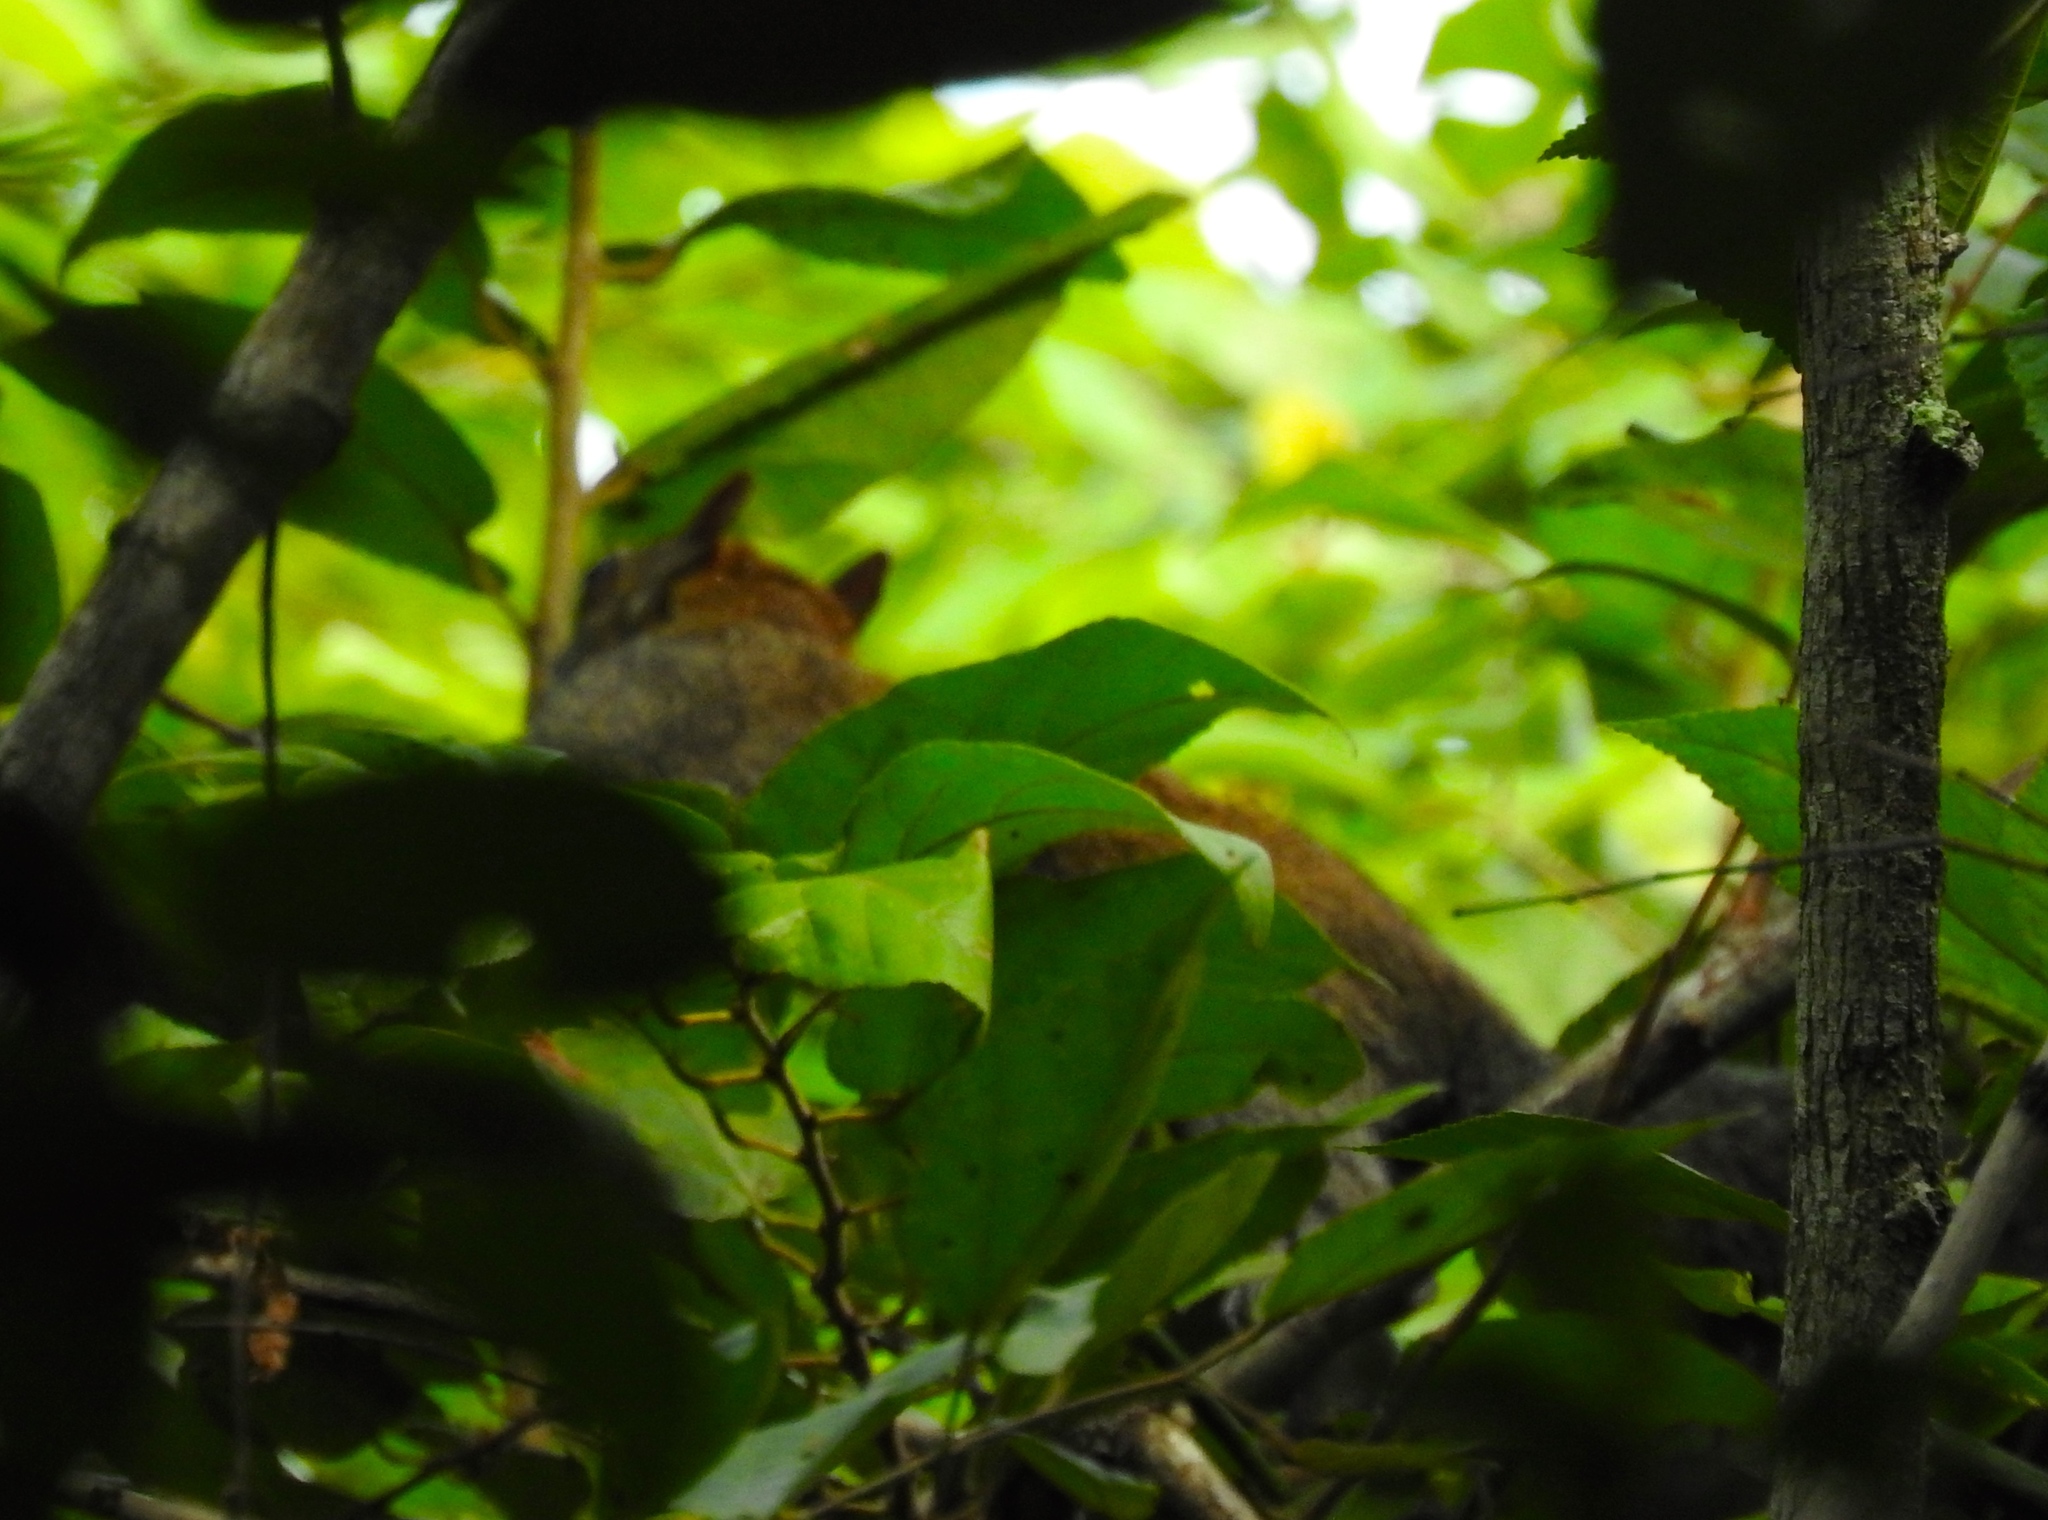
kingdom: Animalia
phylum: Chordata
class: Mammalia
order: Rodentia
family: Sciuridae
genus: Sciurus
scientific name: Sciurus colliaei
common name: Collie's squirrel
